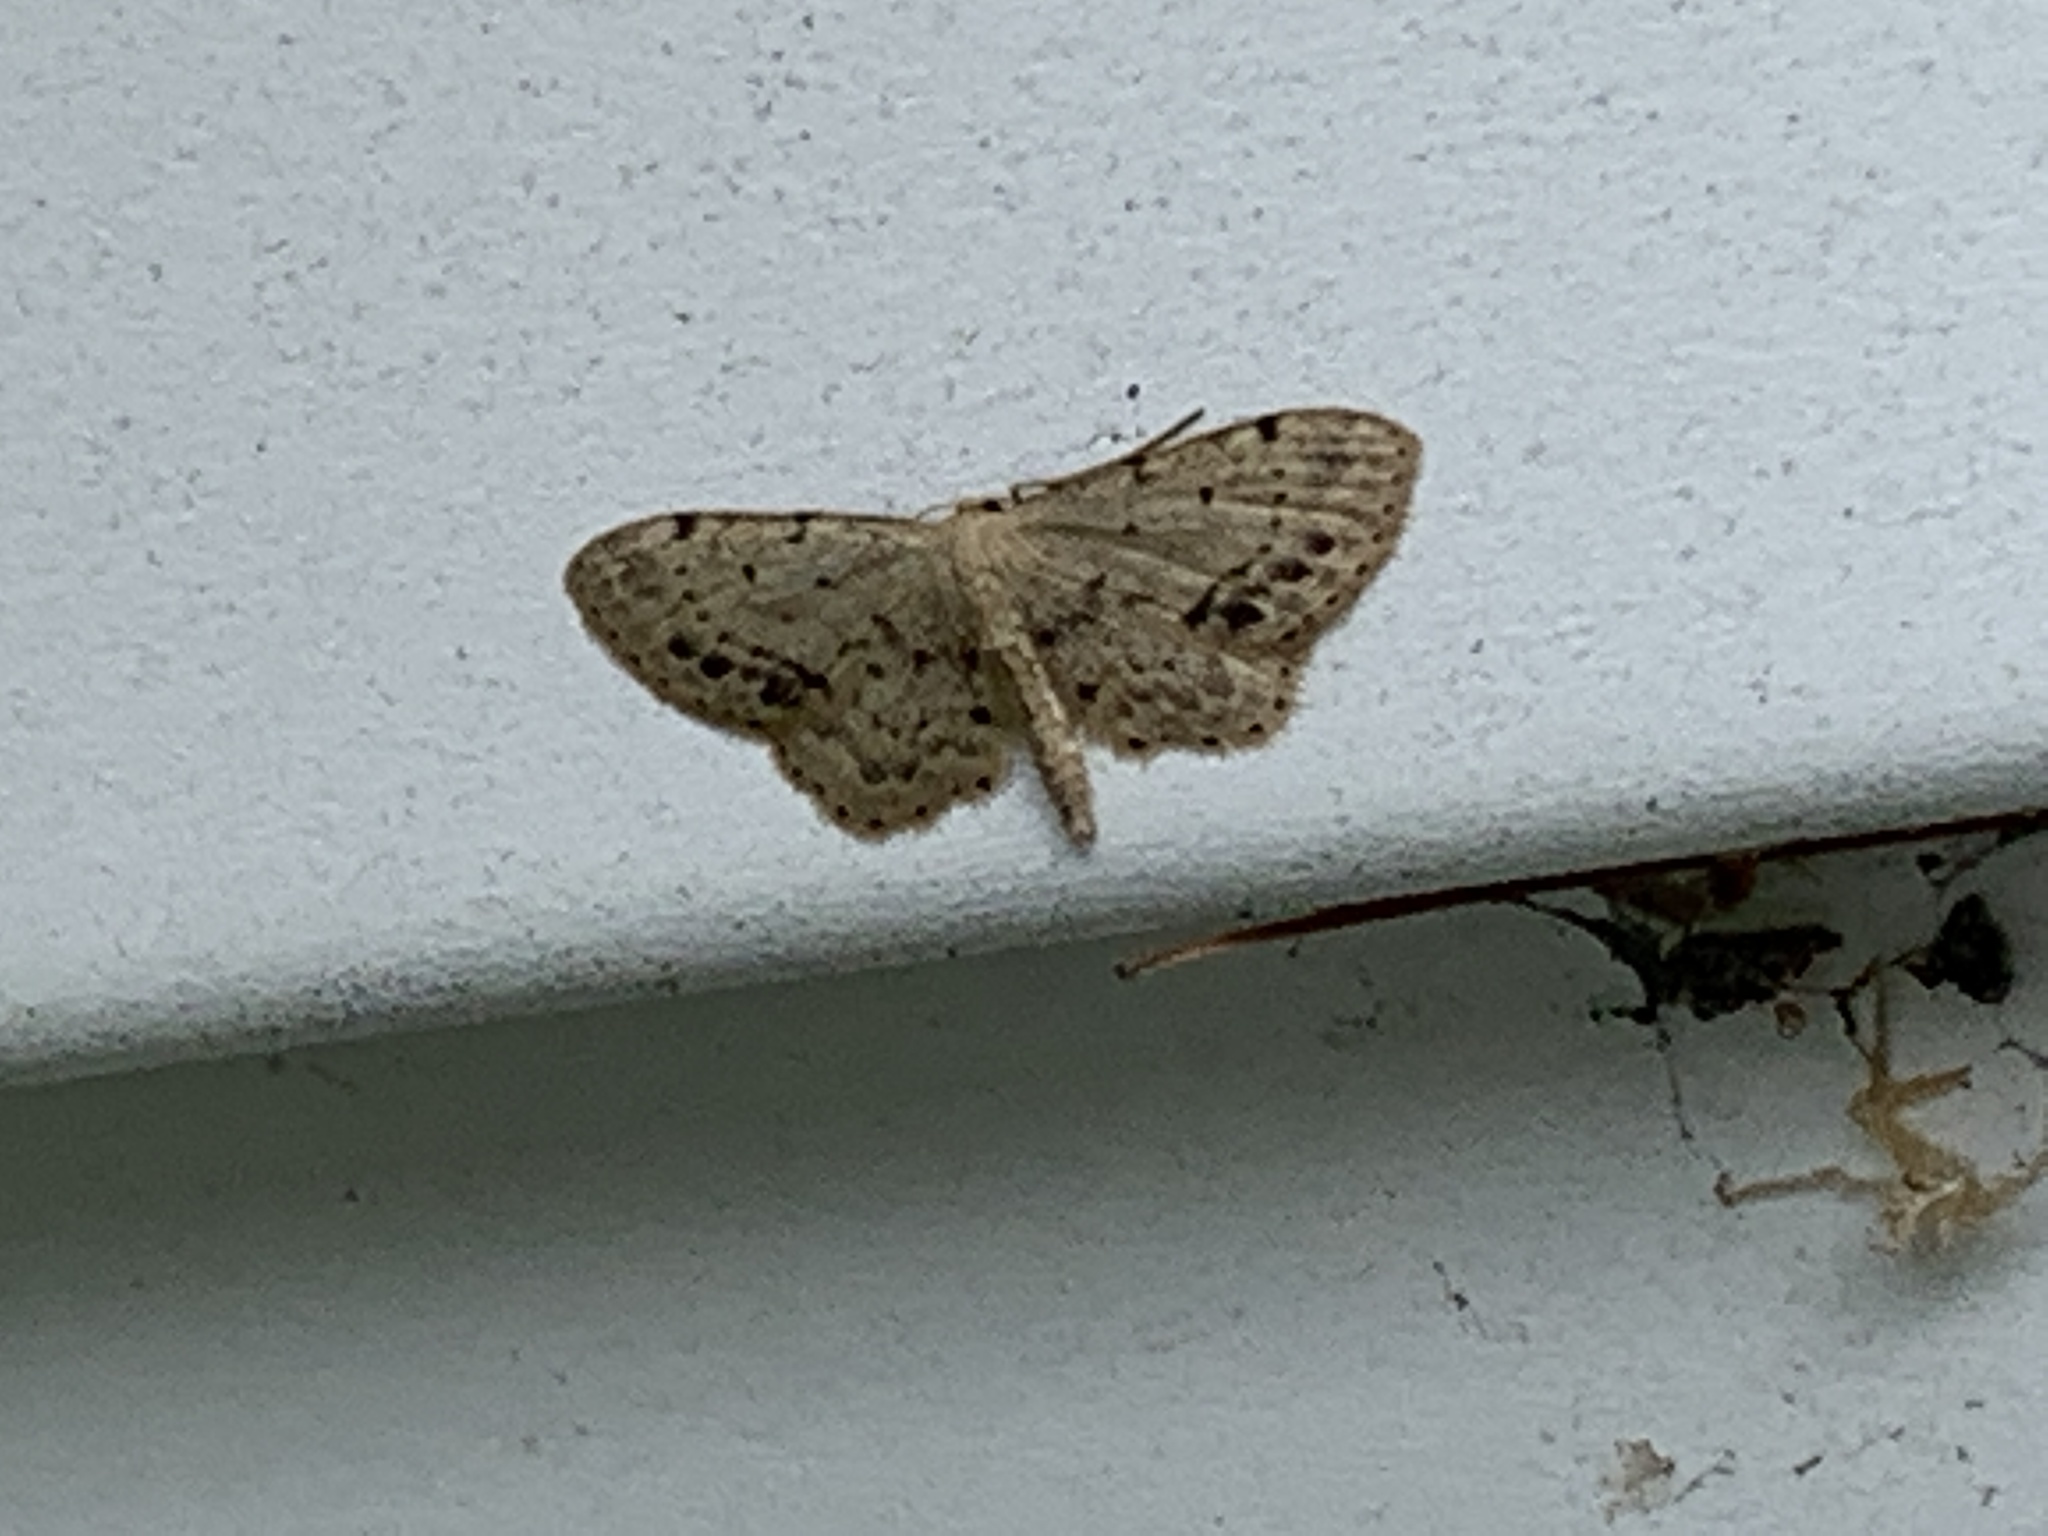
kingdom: Animalia
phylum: Arthropoda
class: Insecta
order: Lepidoptera
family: Geometridae
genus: Idaea
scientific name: Idaea dimidiata
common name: Single-dotted wave
